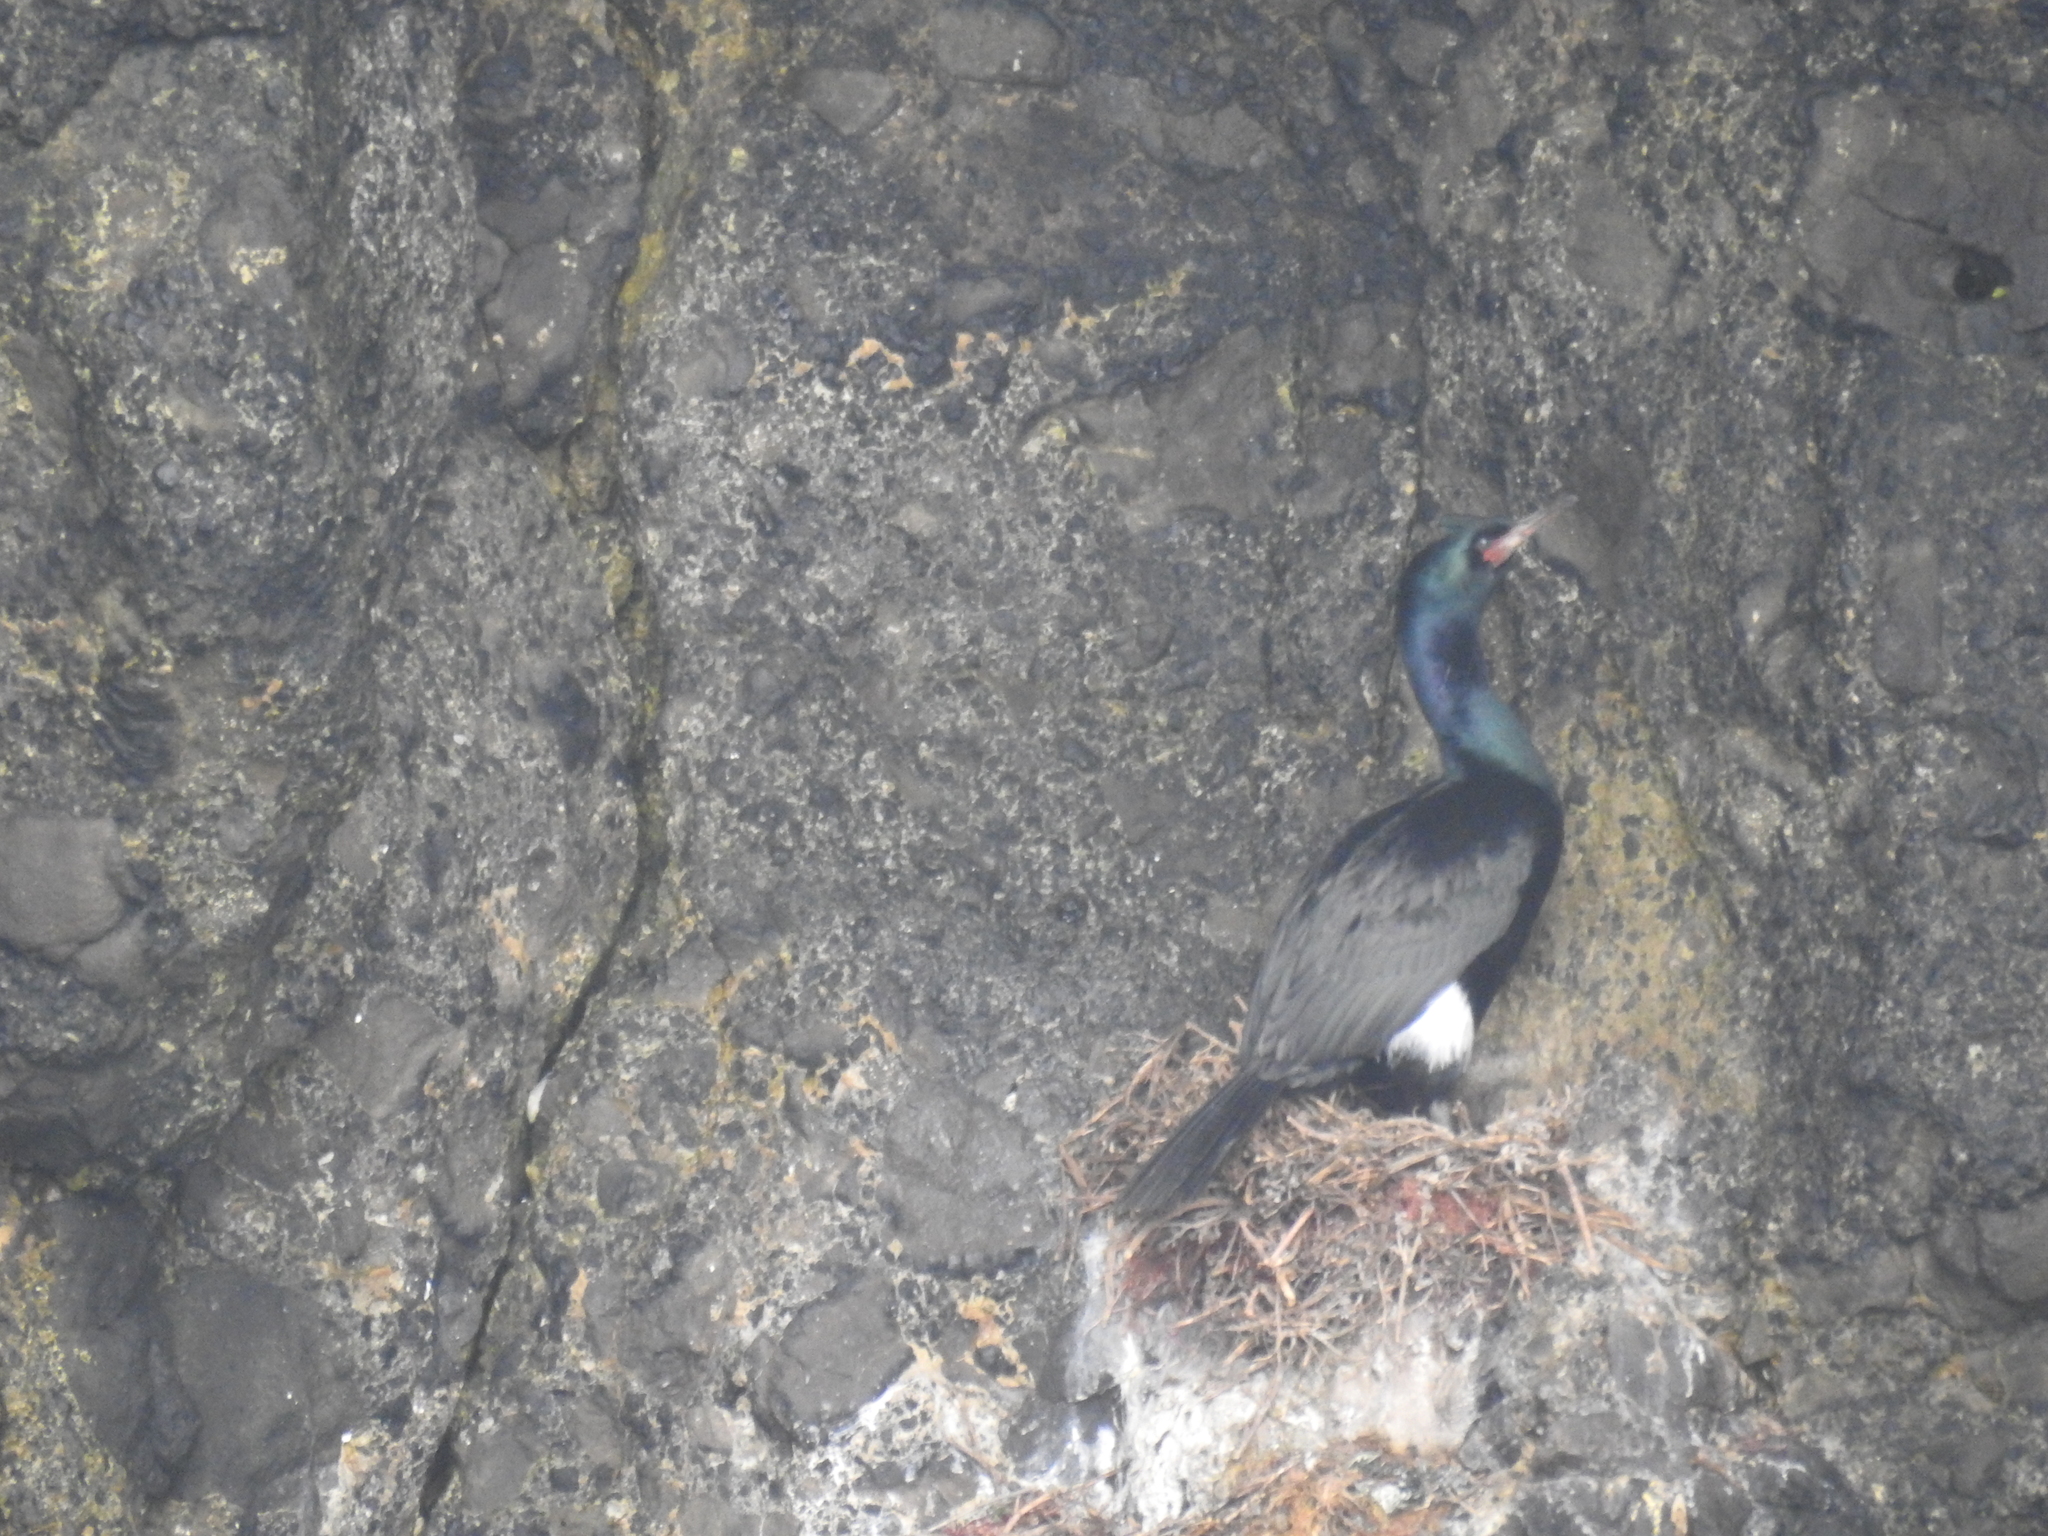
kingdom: Animalia
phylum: Chordata
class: Aves
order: Suliformes
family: Phalacrocoracidae
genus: Phalacrocorax
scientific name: Phalacrocorax pelagicus
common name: Pelagic cormorant
